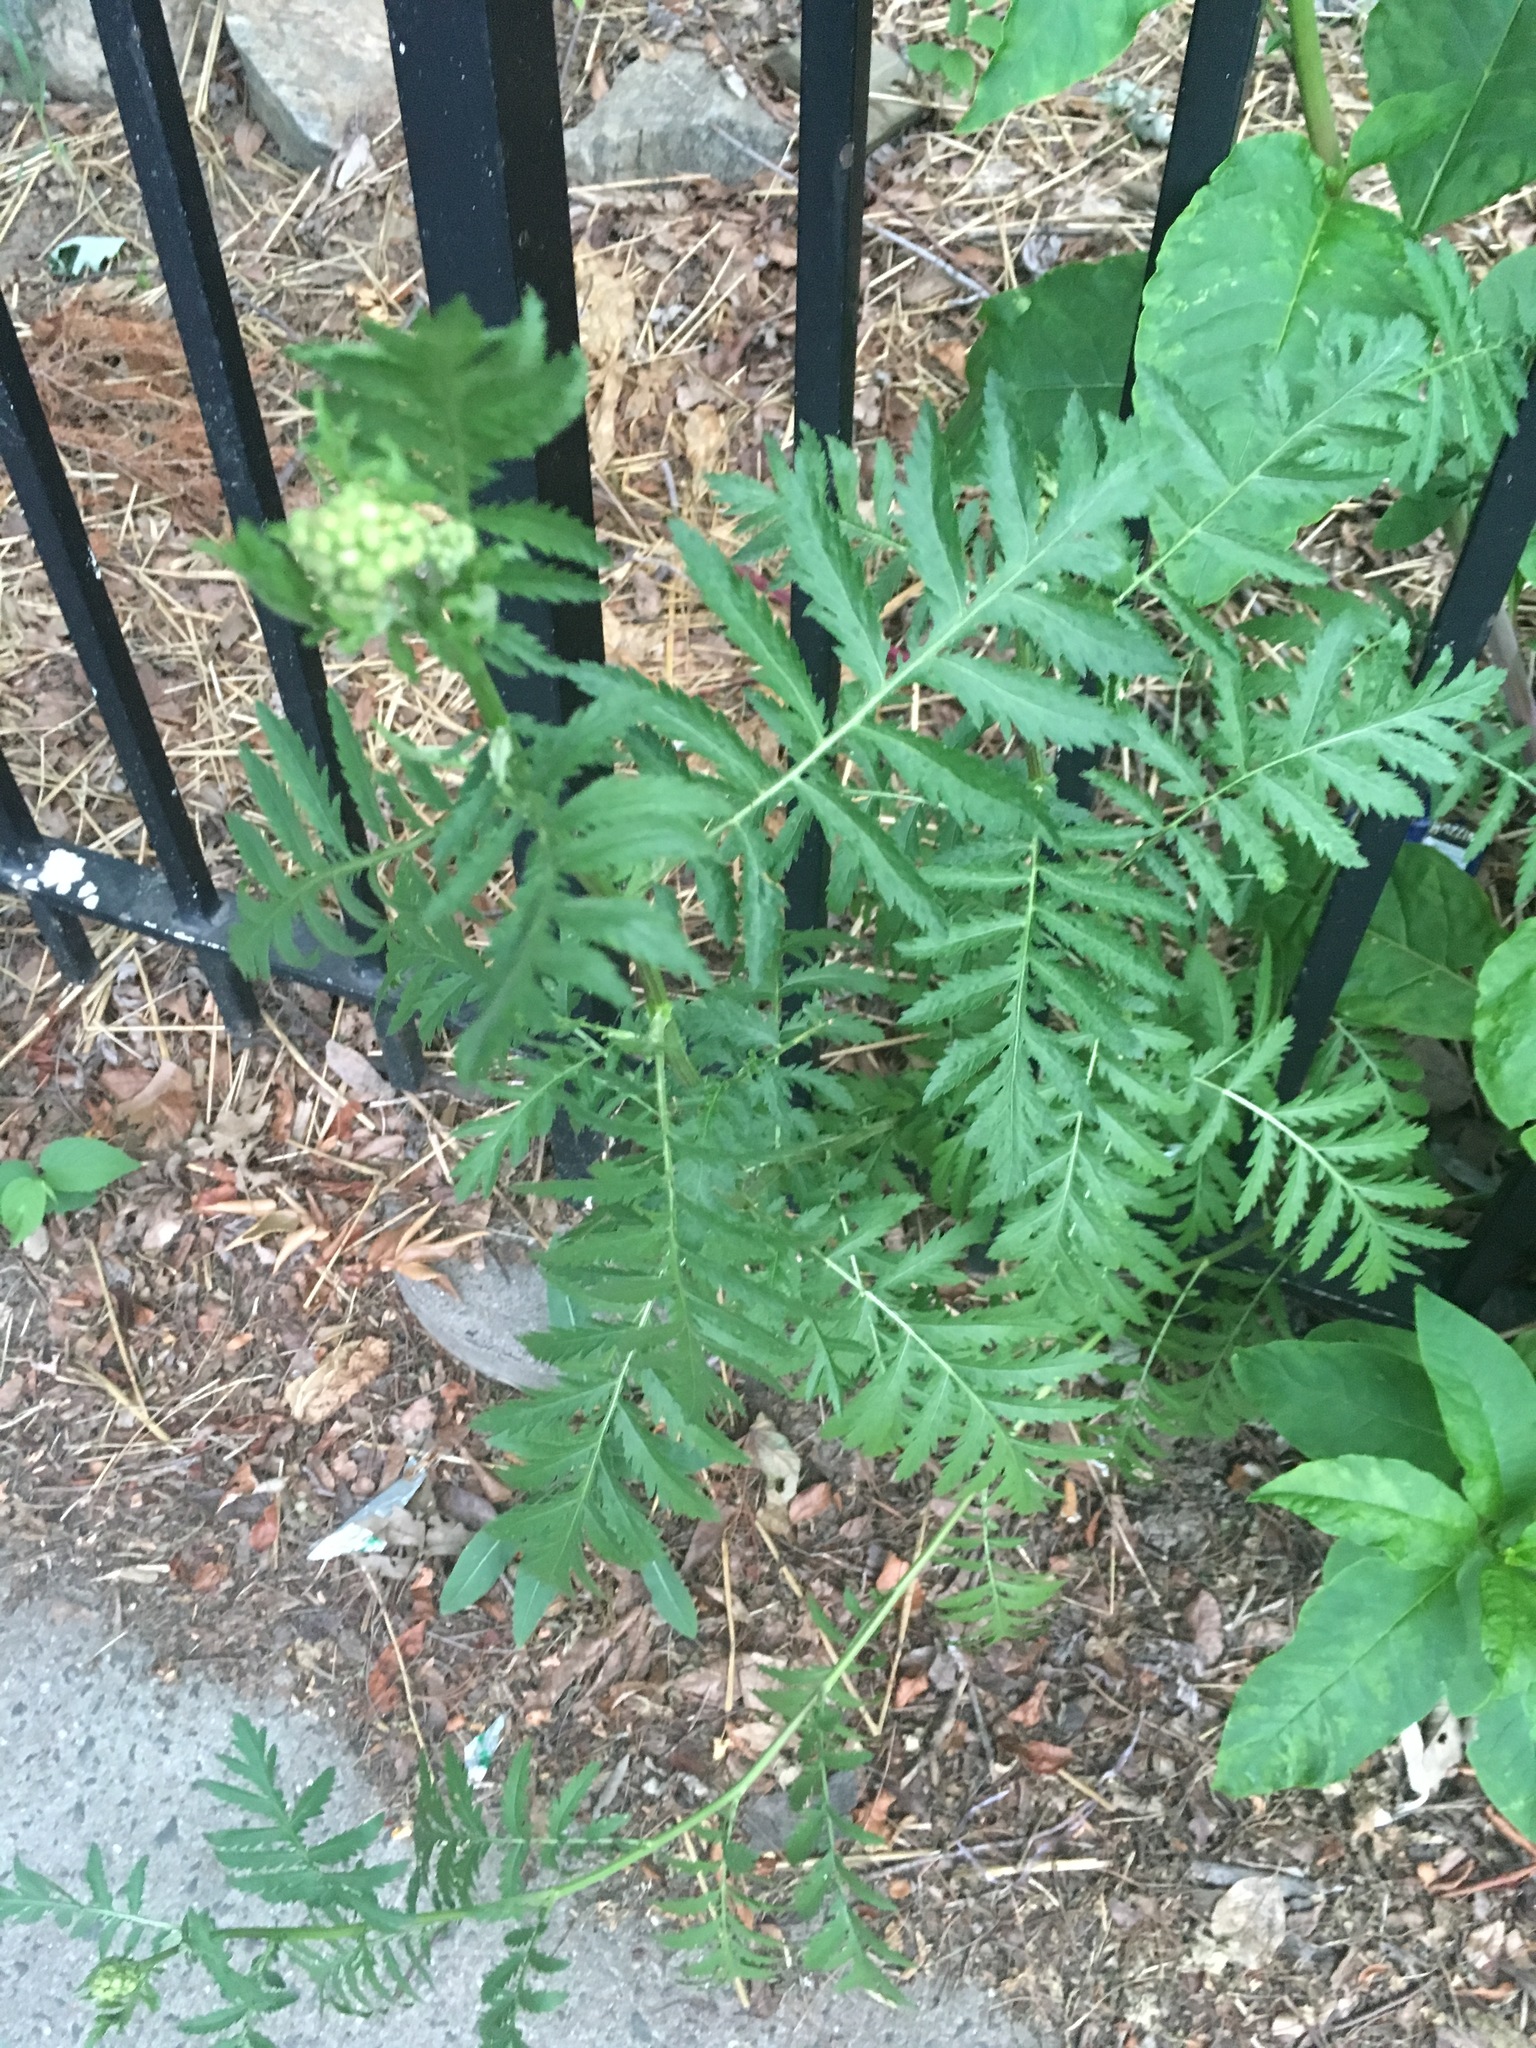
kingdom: Plantae
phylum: Tracheophyta
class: Magnoliopsida
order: Asterales
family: Asteraceae
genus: Tanacetum
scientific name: Tanacetum vulgare
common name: Common tansy
